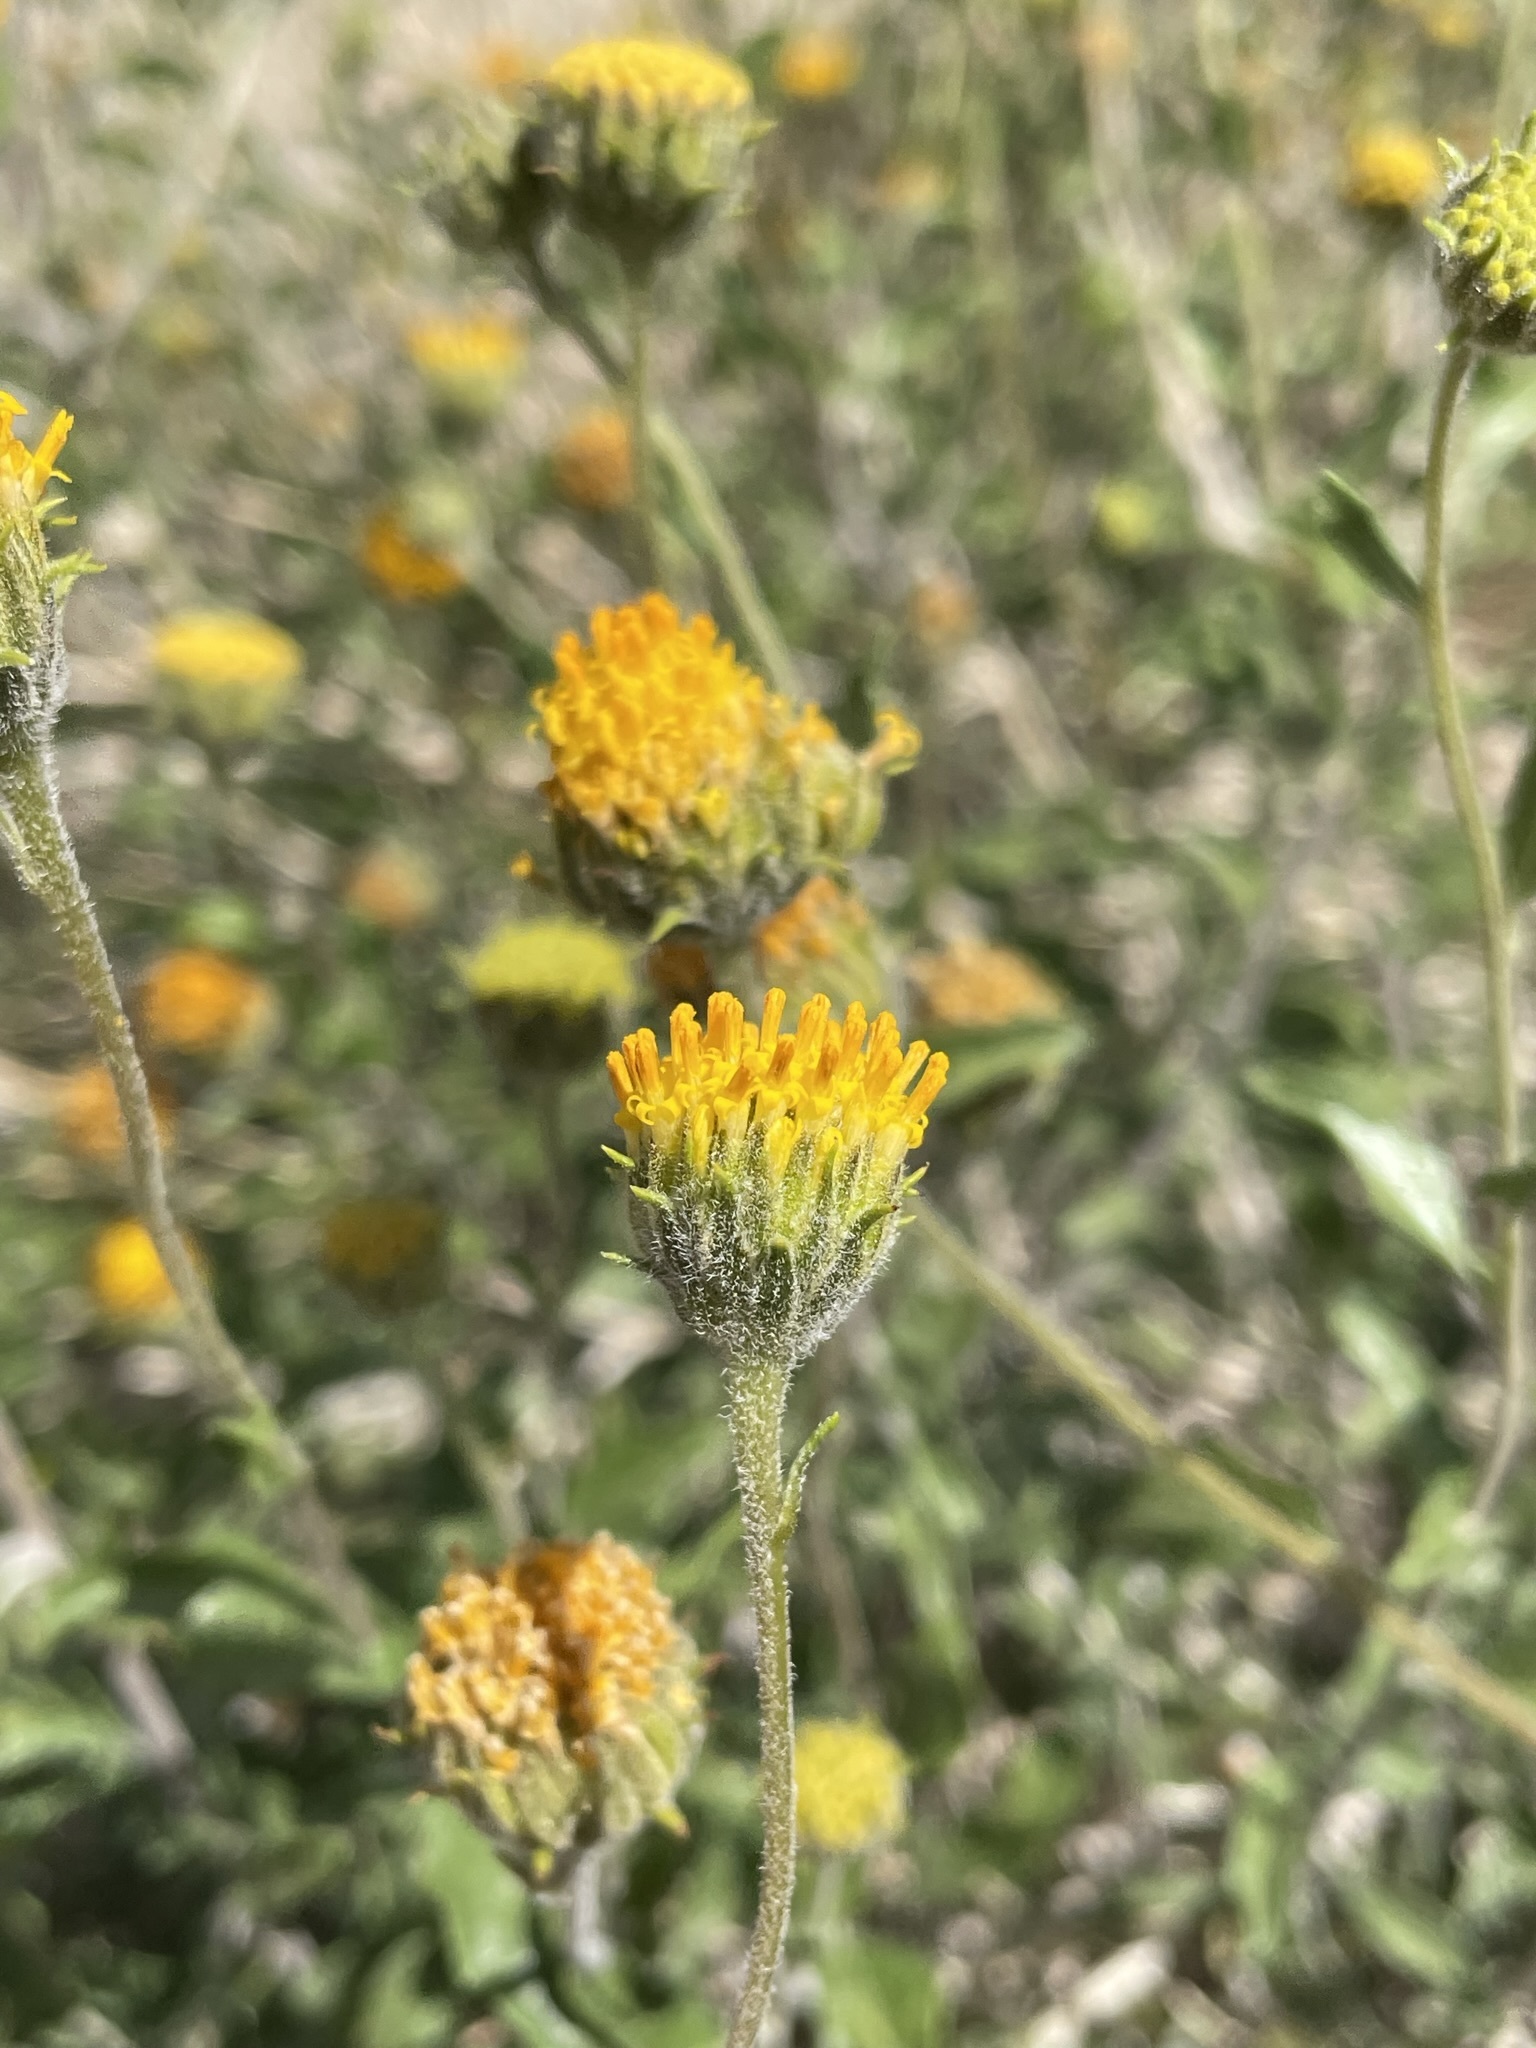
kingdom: Plantae
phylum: Tracheophyta
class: Magnoliopsida
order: Asterales
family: Asteraceae
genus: Encelia
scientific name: Encelia frutescens
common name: Bush encelia
